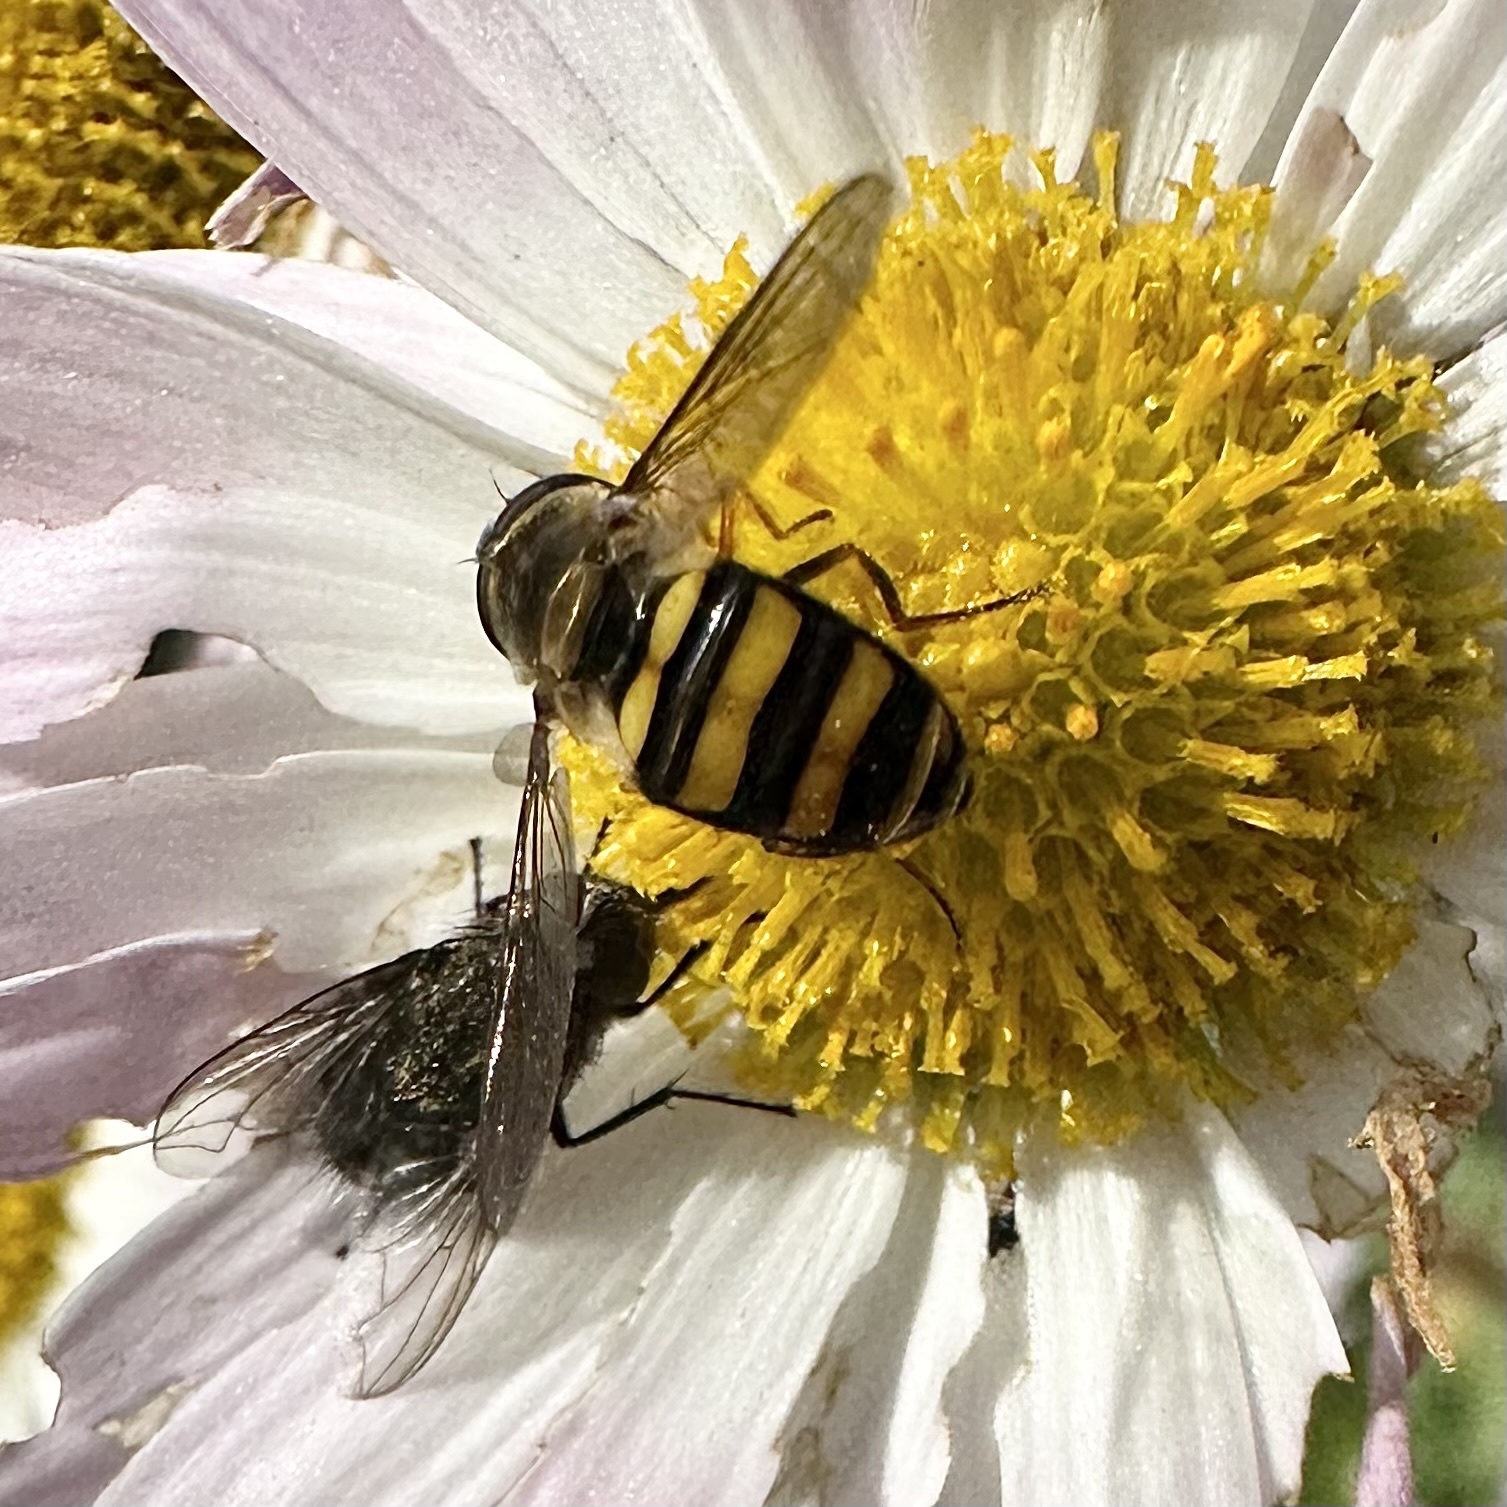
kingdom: Animalia
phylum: Arthropoda
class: Insecta
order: Diptera
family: Syrphidae
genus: Eupeodes
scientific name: Eupeodes
